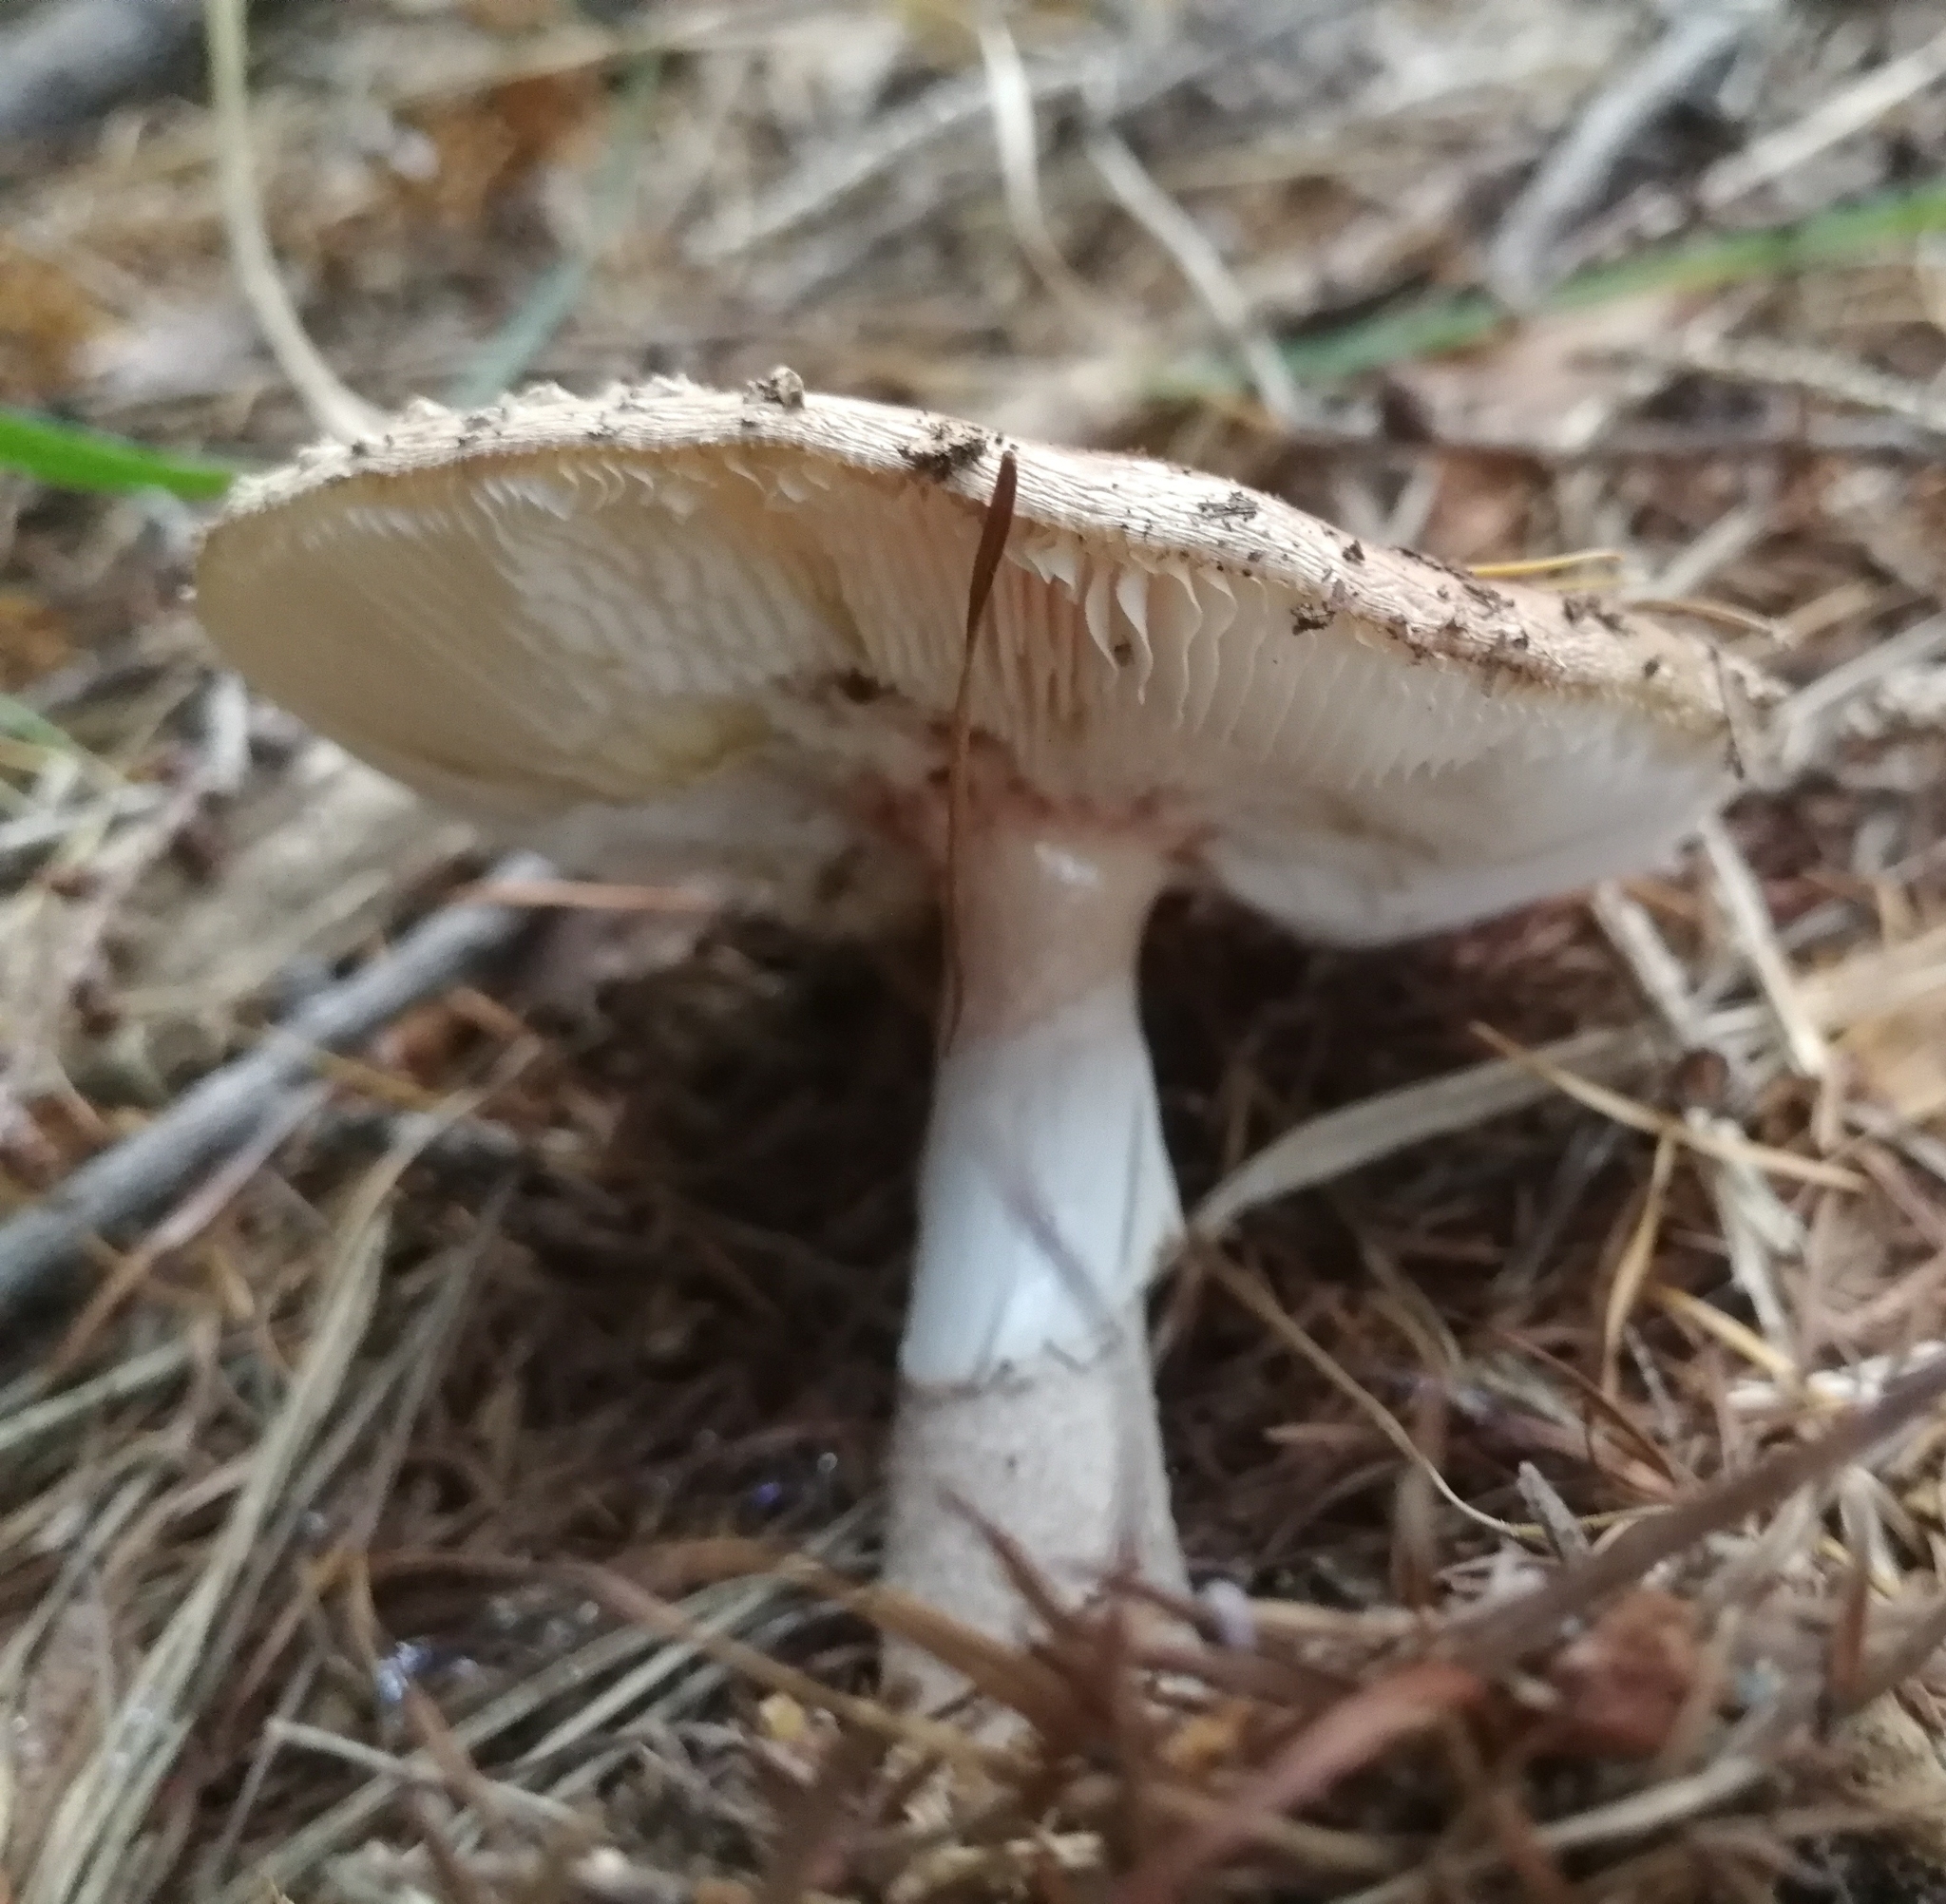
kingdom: Fungi
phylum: Basidiomycota
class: Agaricomycetes
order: Agaricales
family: Amanitaceae
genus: Amanita
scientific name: Amanita rubescens
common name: Blusher
